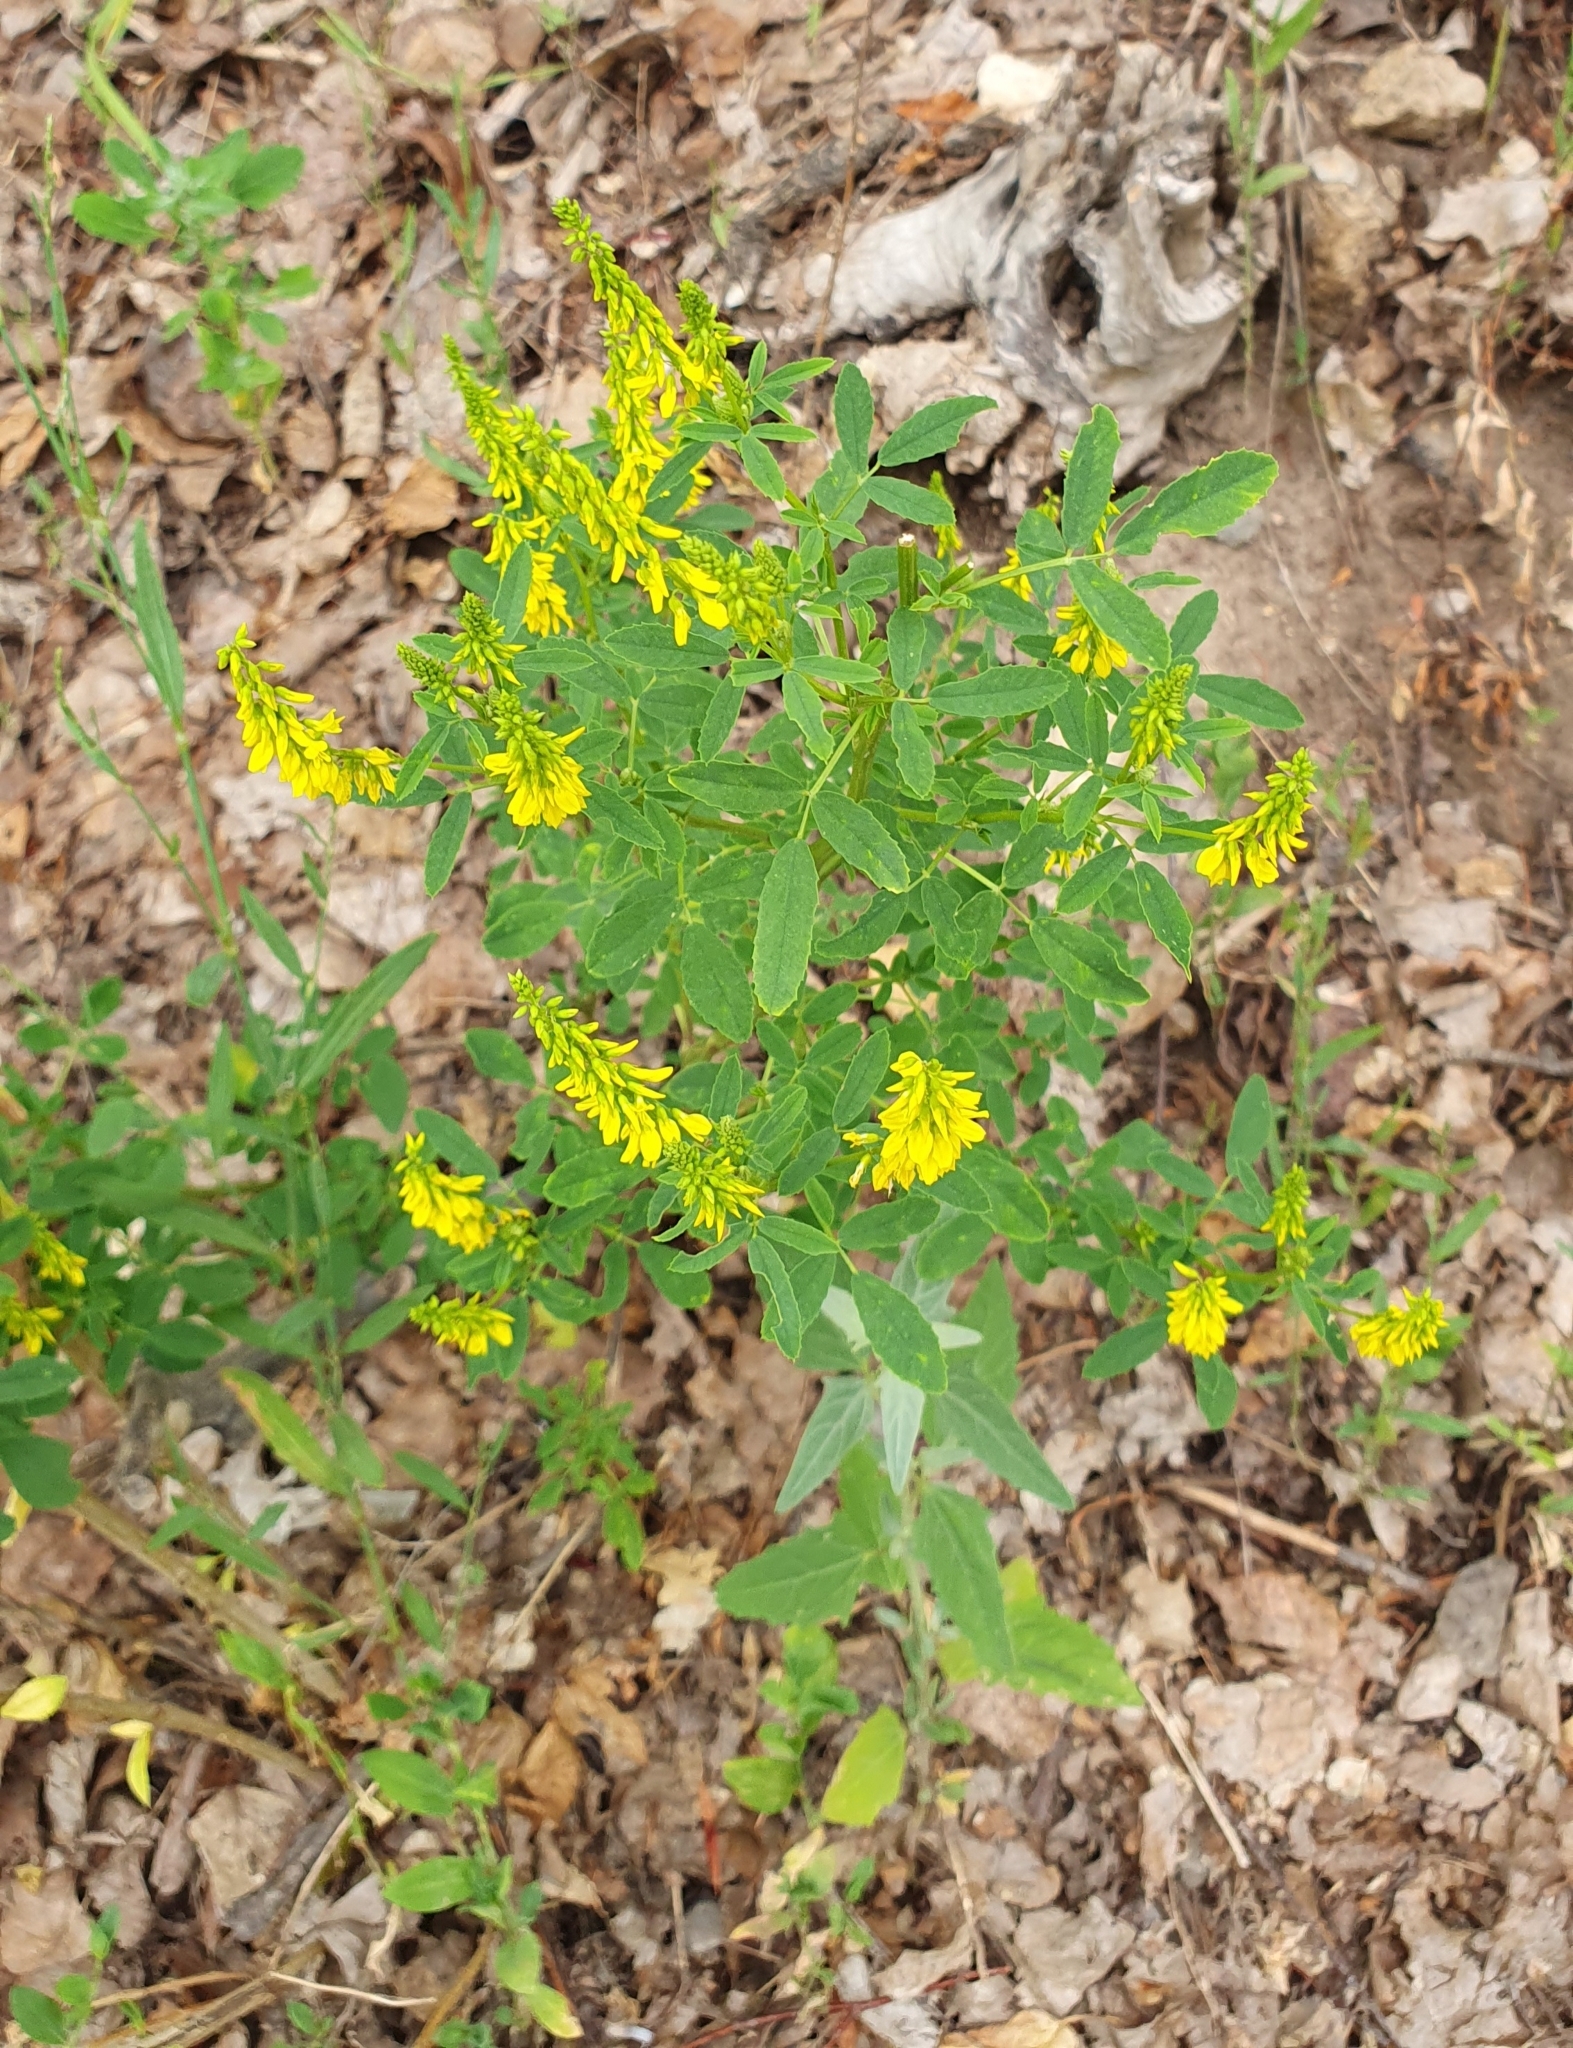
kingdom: Plantae
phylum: Tracheophyta
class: Magnoliopsida
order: Fabales
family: Fabaceae
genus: Melilotus
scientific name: Melilotus officinalis
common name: Sweetclover
